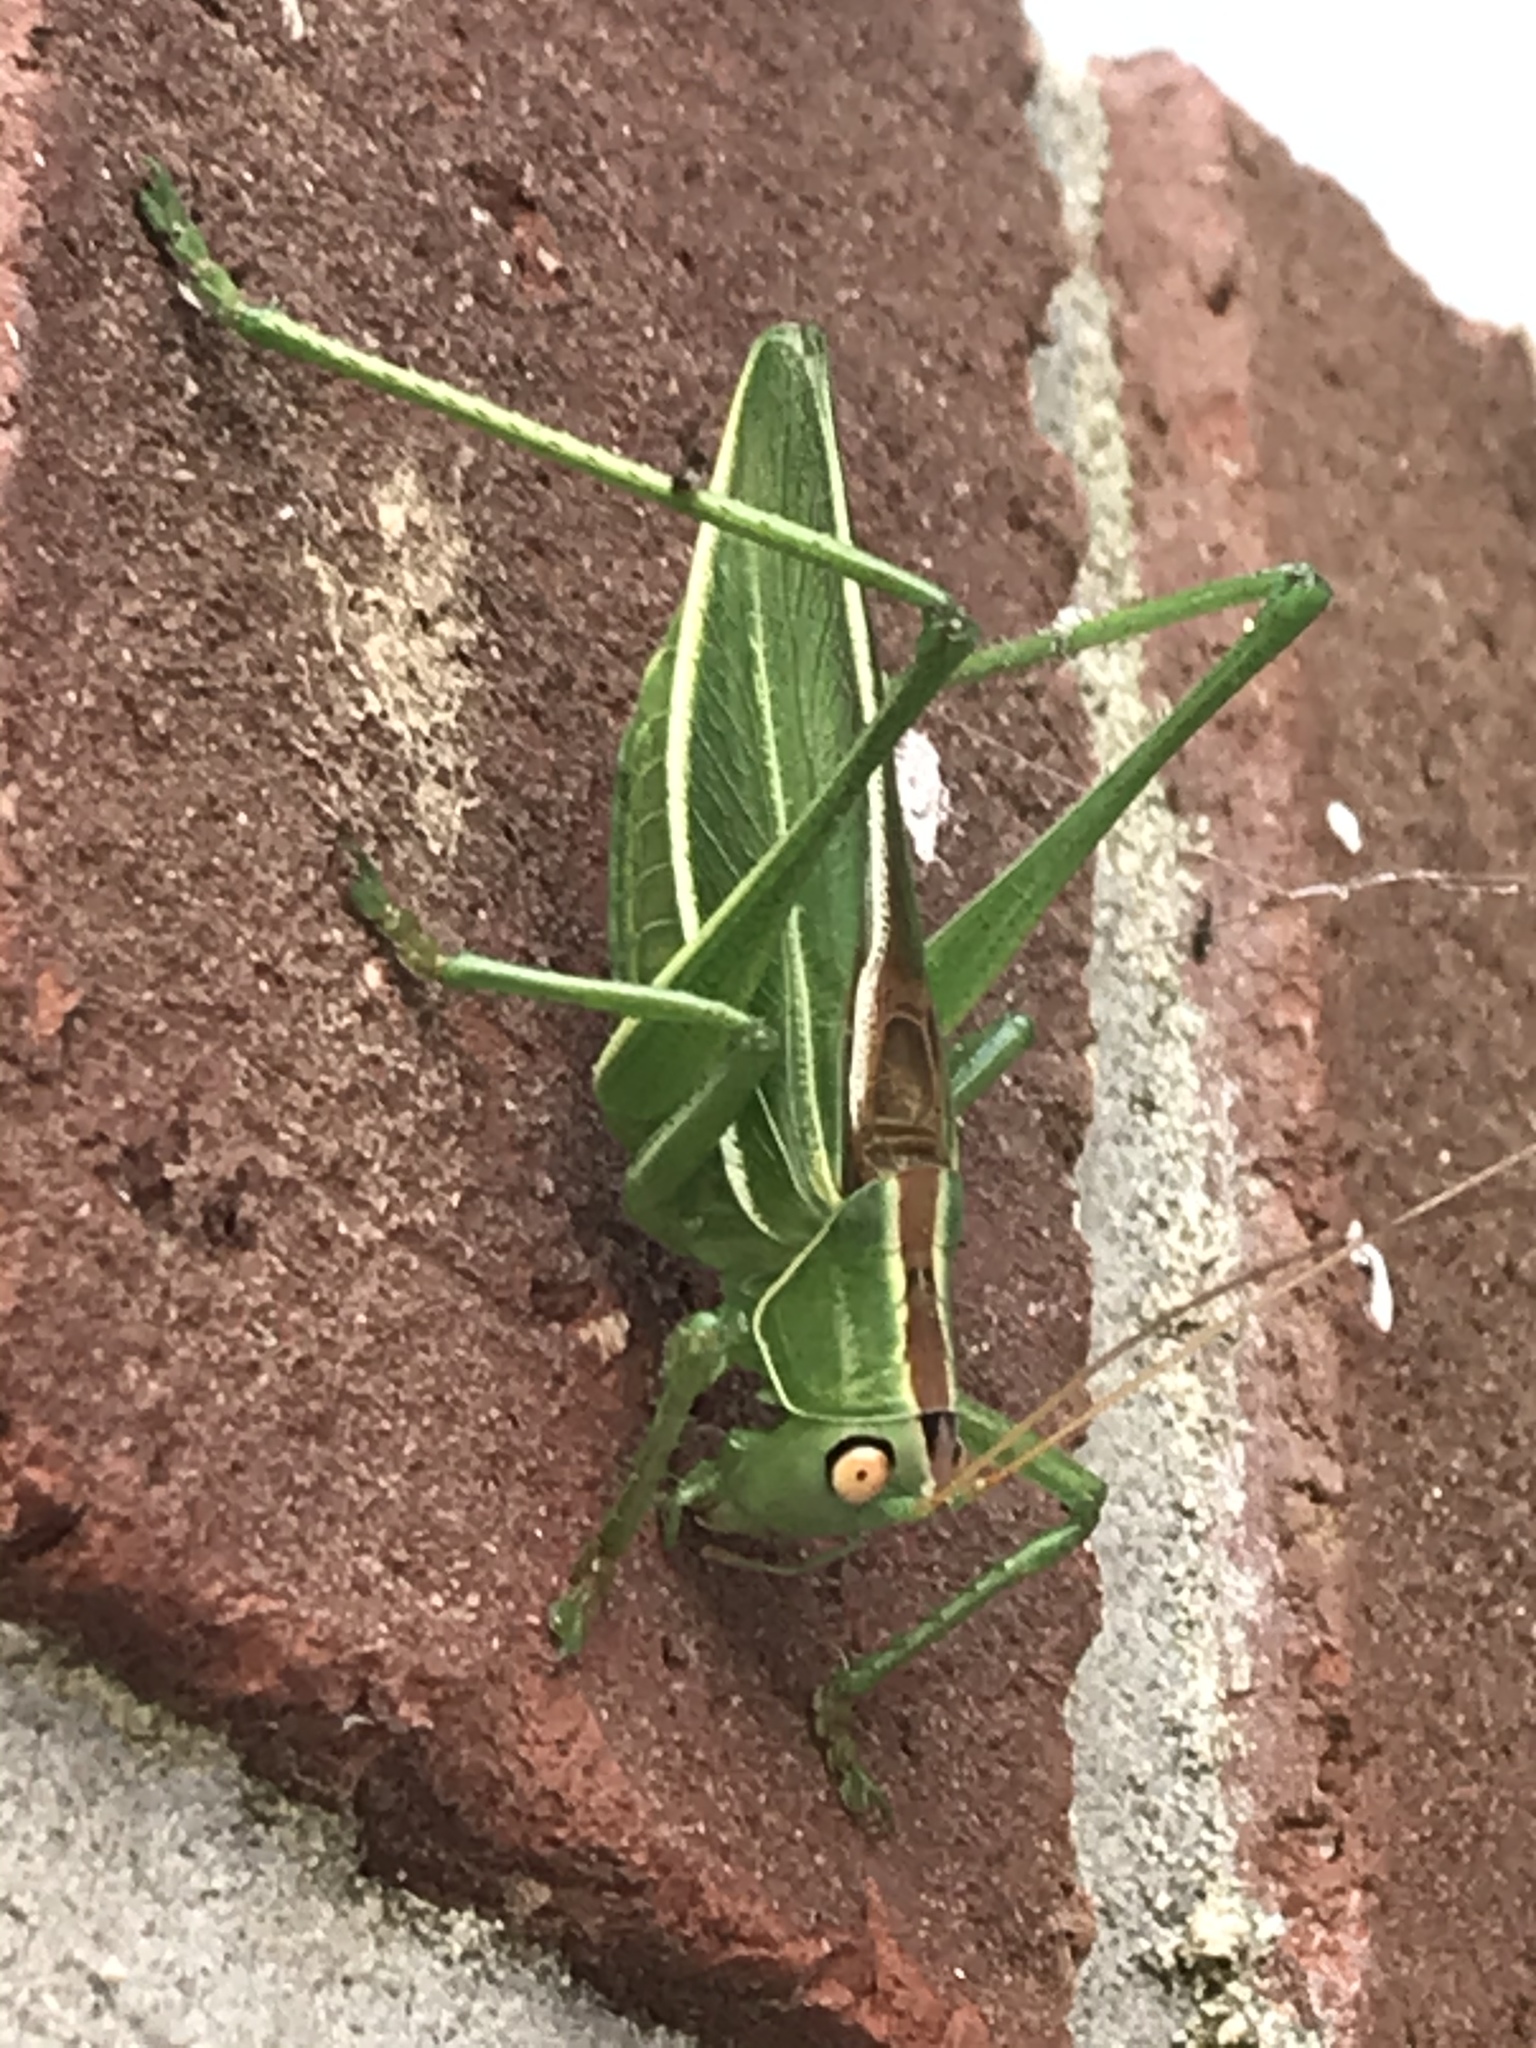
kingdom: Animalia
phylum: Arthropoda
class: Insecta
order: Orthoptera
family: Tettigoniidae
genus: Hubbellia
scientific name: Hubbellia marginifera
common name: Pine katydid
